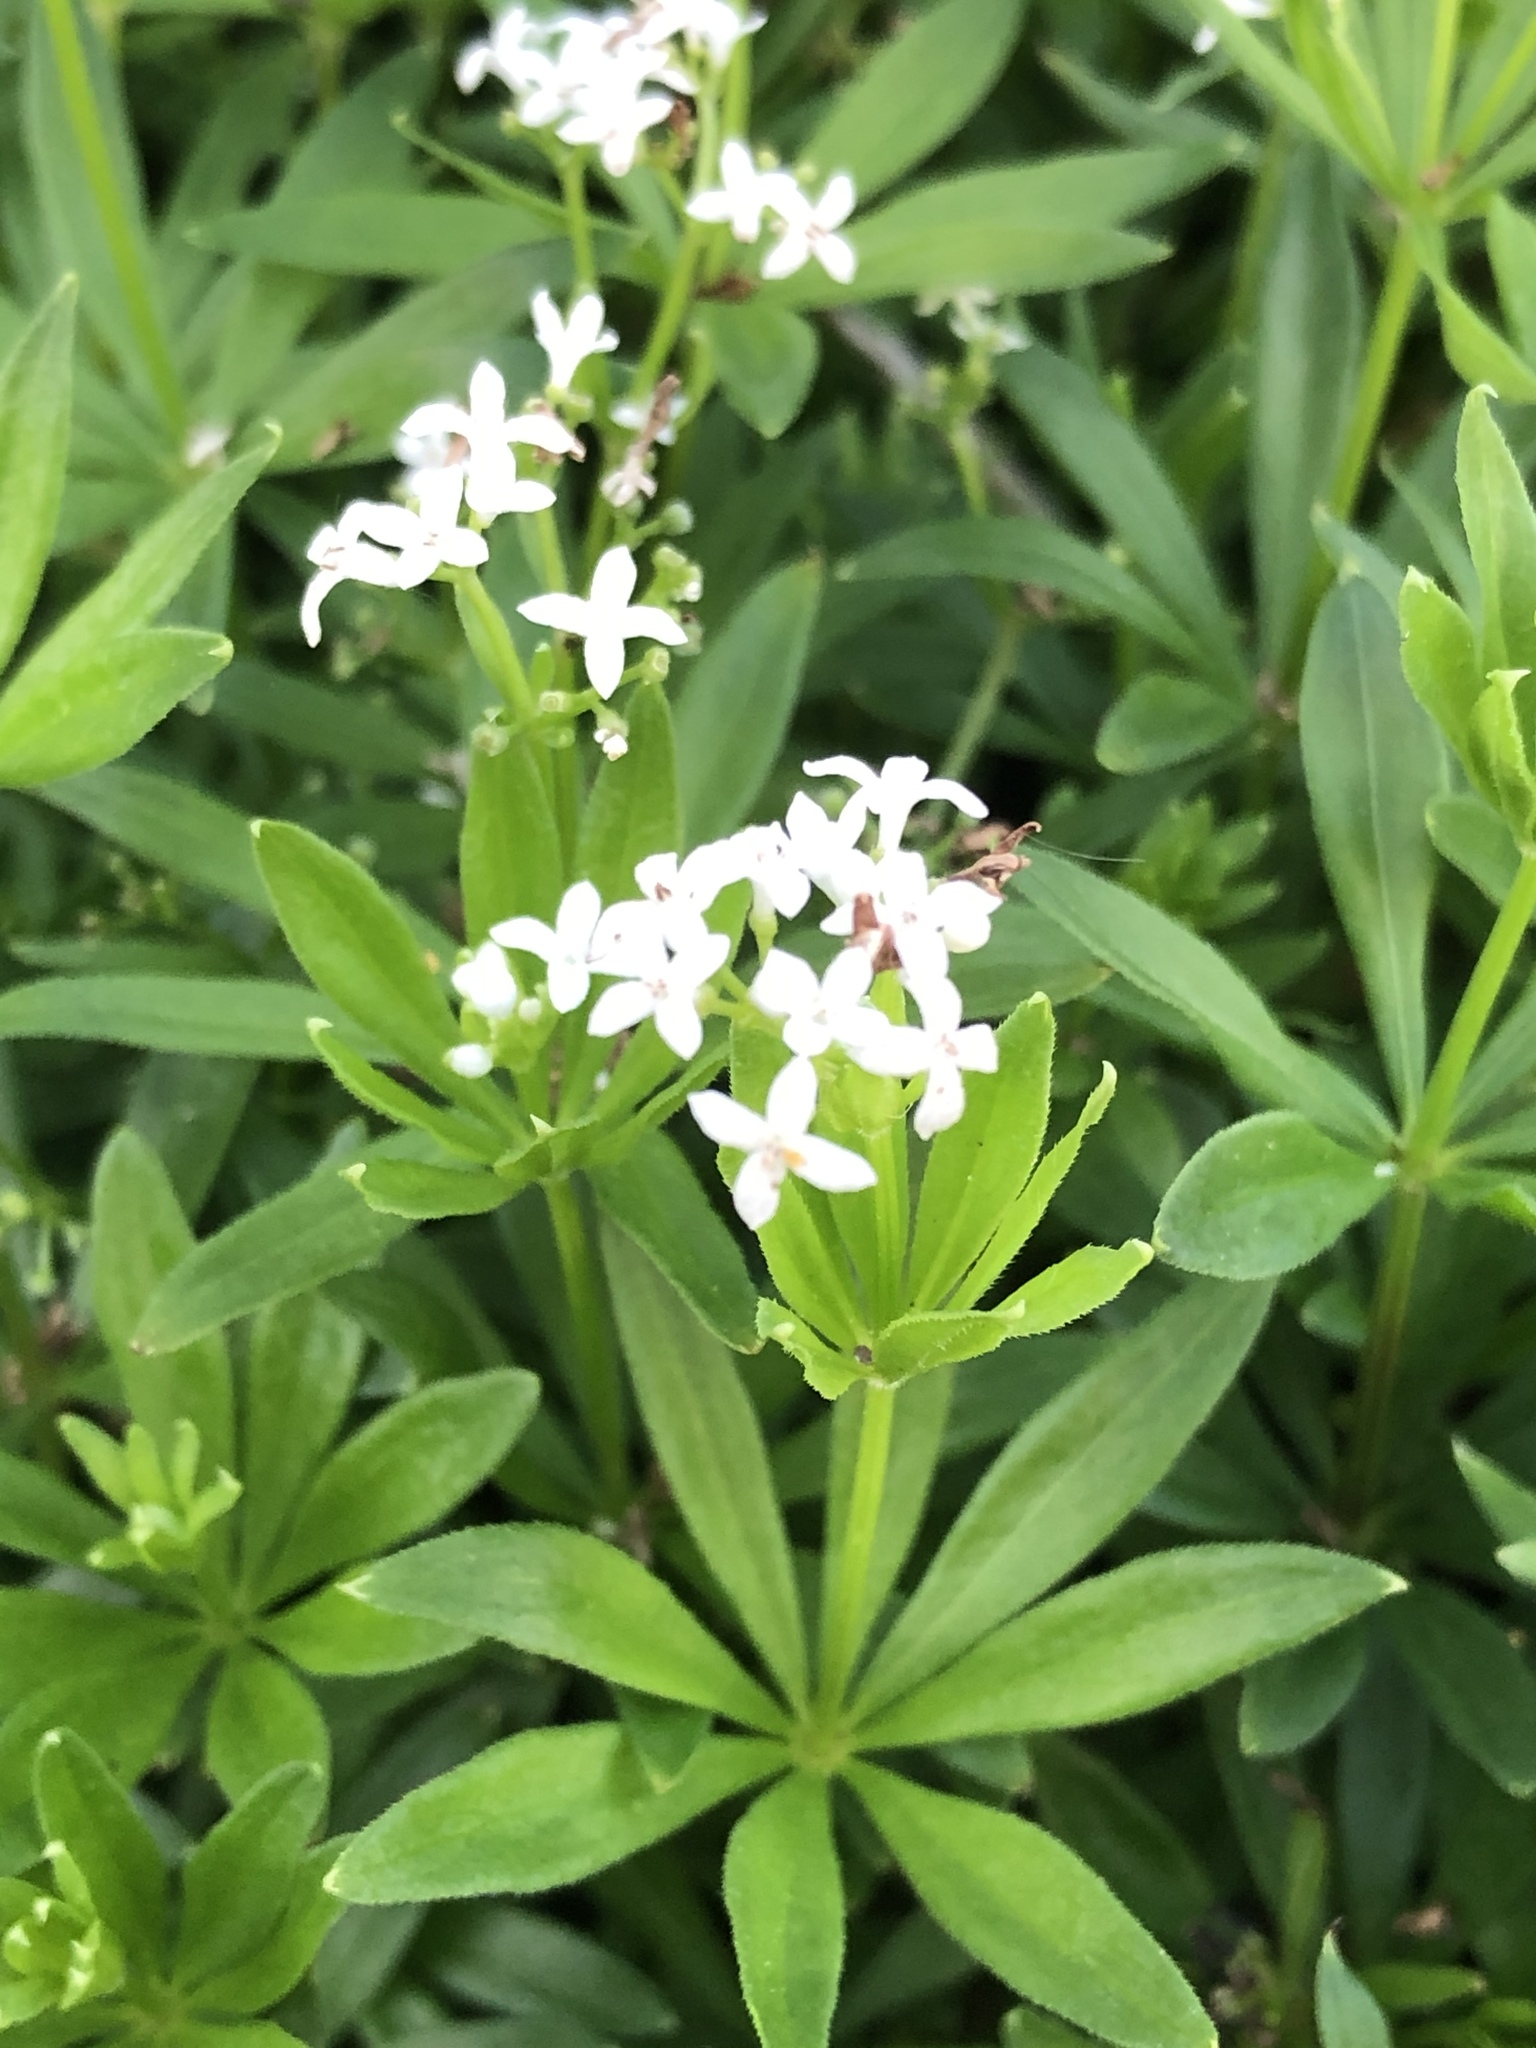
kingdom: Plantae
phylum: Tracheophyta
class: Magnoliopsida
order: Gentianales
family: Rubiaceae
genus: Galium
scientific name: Galium odoratum
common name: Sweet woodruff
